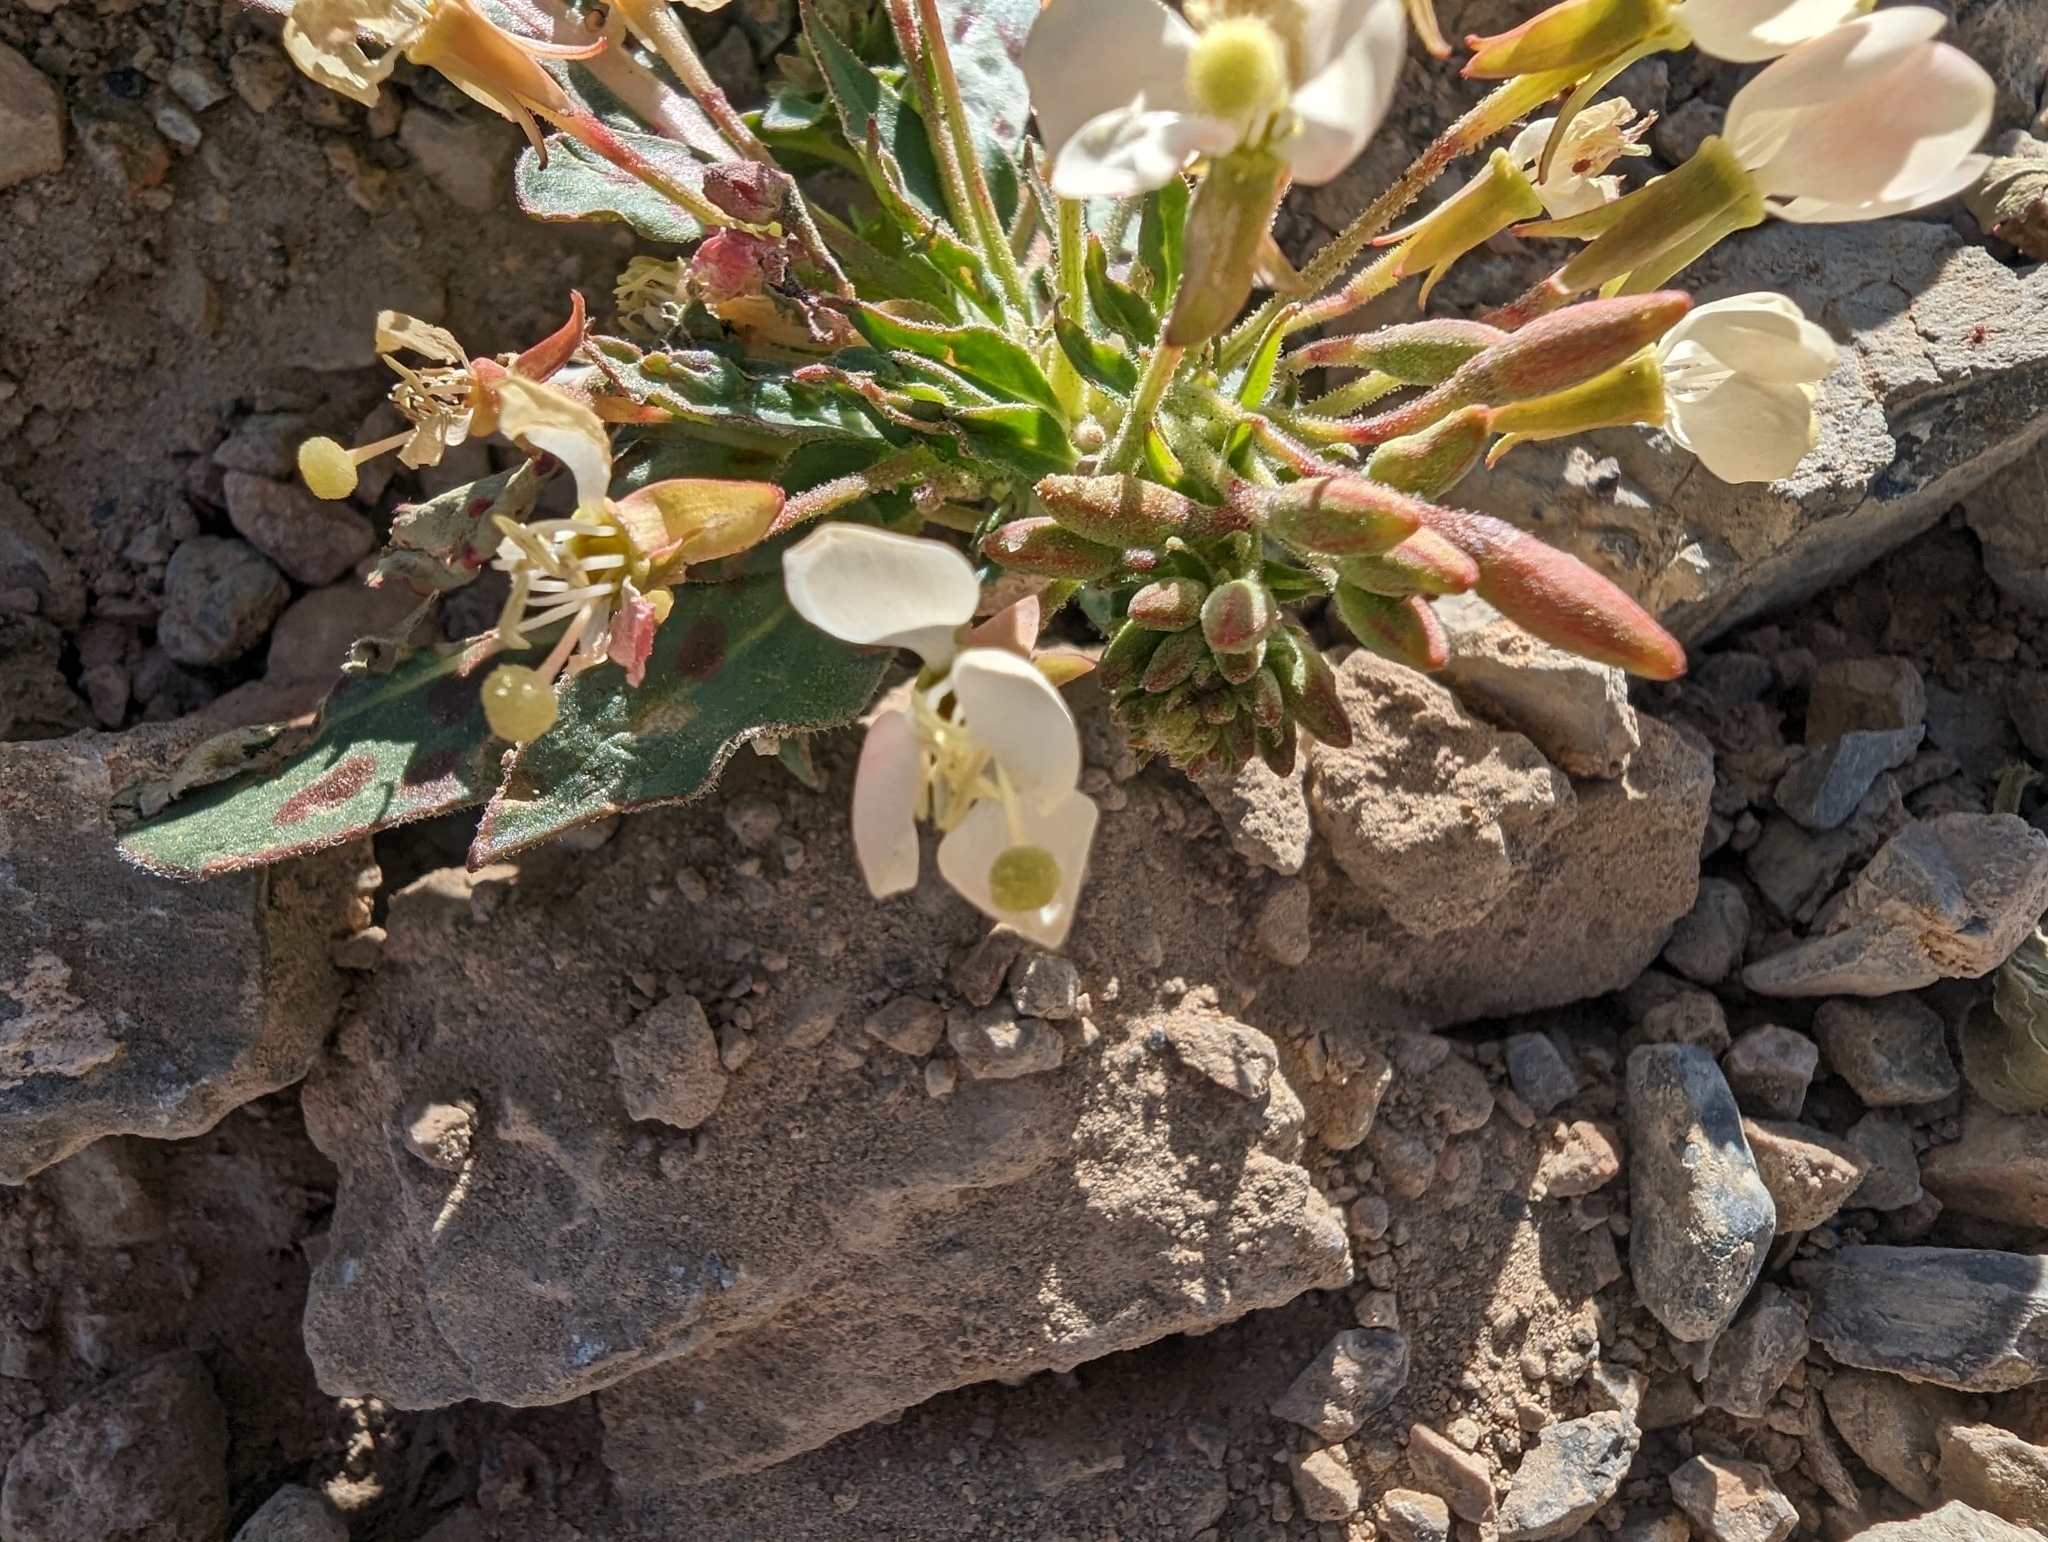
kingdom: Plantae
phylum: Tracheophyta
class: Magnoliopsida
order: Myrtales
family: Onagraceae
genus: Eremothera
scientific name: Eremothera boothii
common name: Booth's evening primrose
